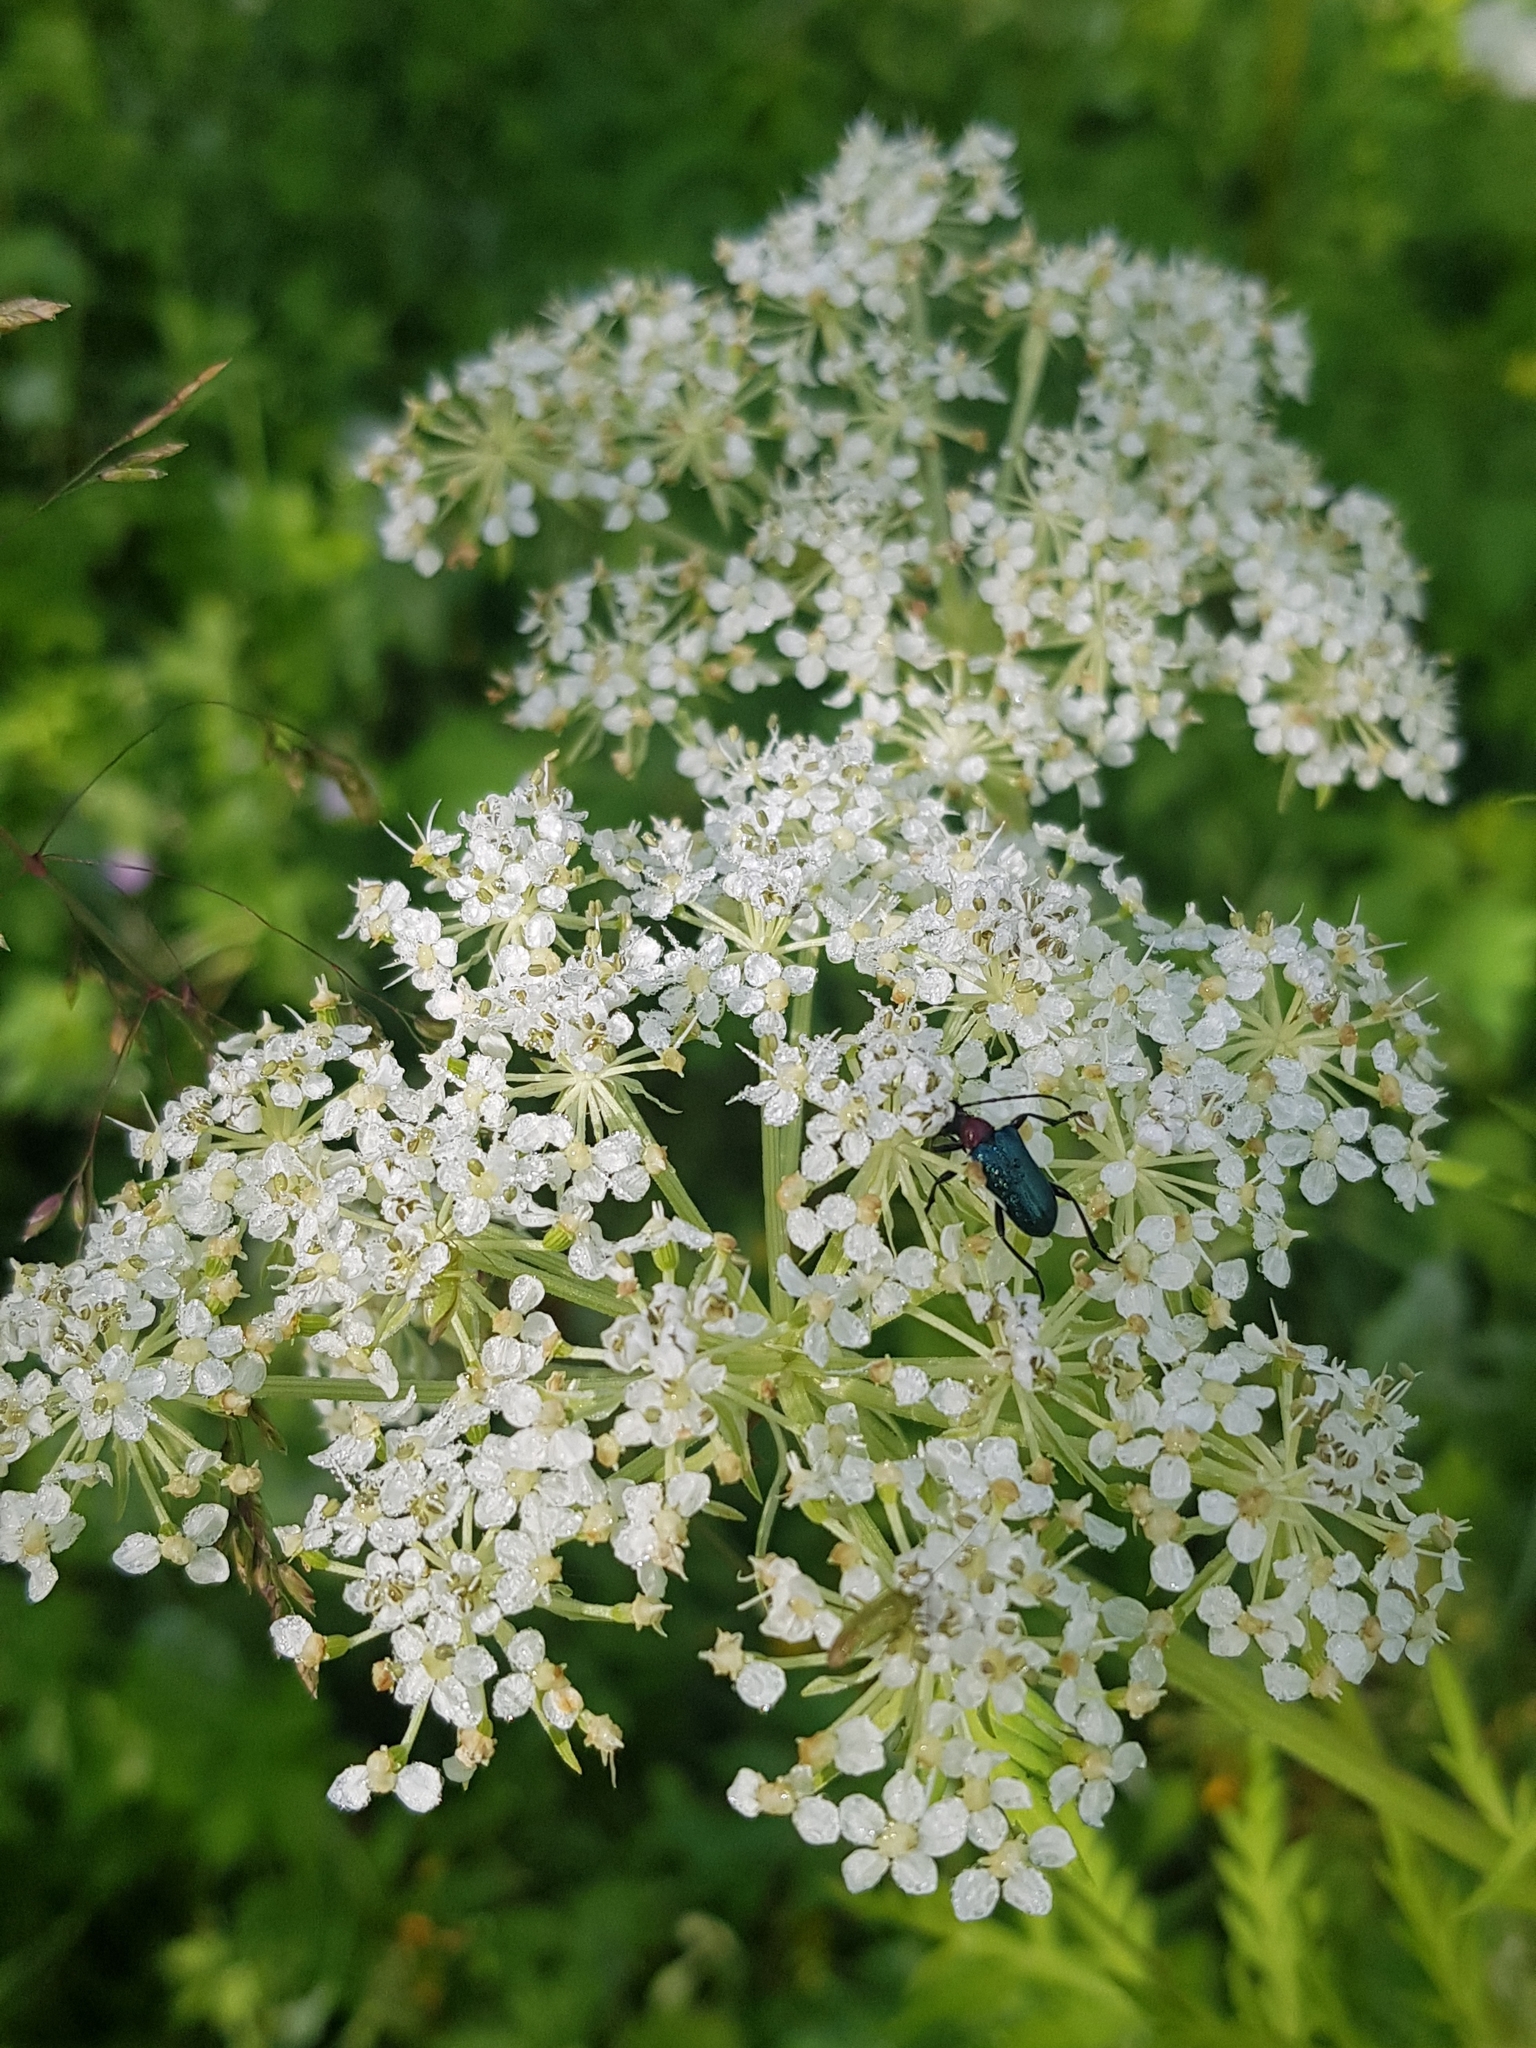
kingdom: Plantae
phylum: Tracheophyta
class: Magnoliopsida
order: Apiales
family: Apiaceae
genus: Pleurospermum
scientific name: Pleurospermum uralense
